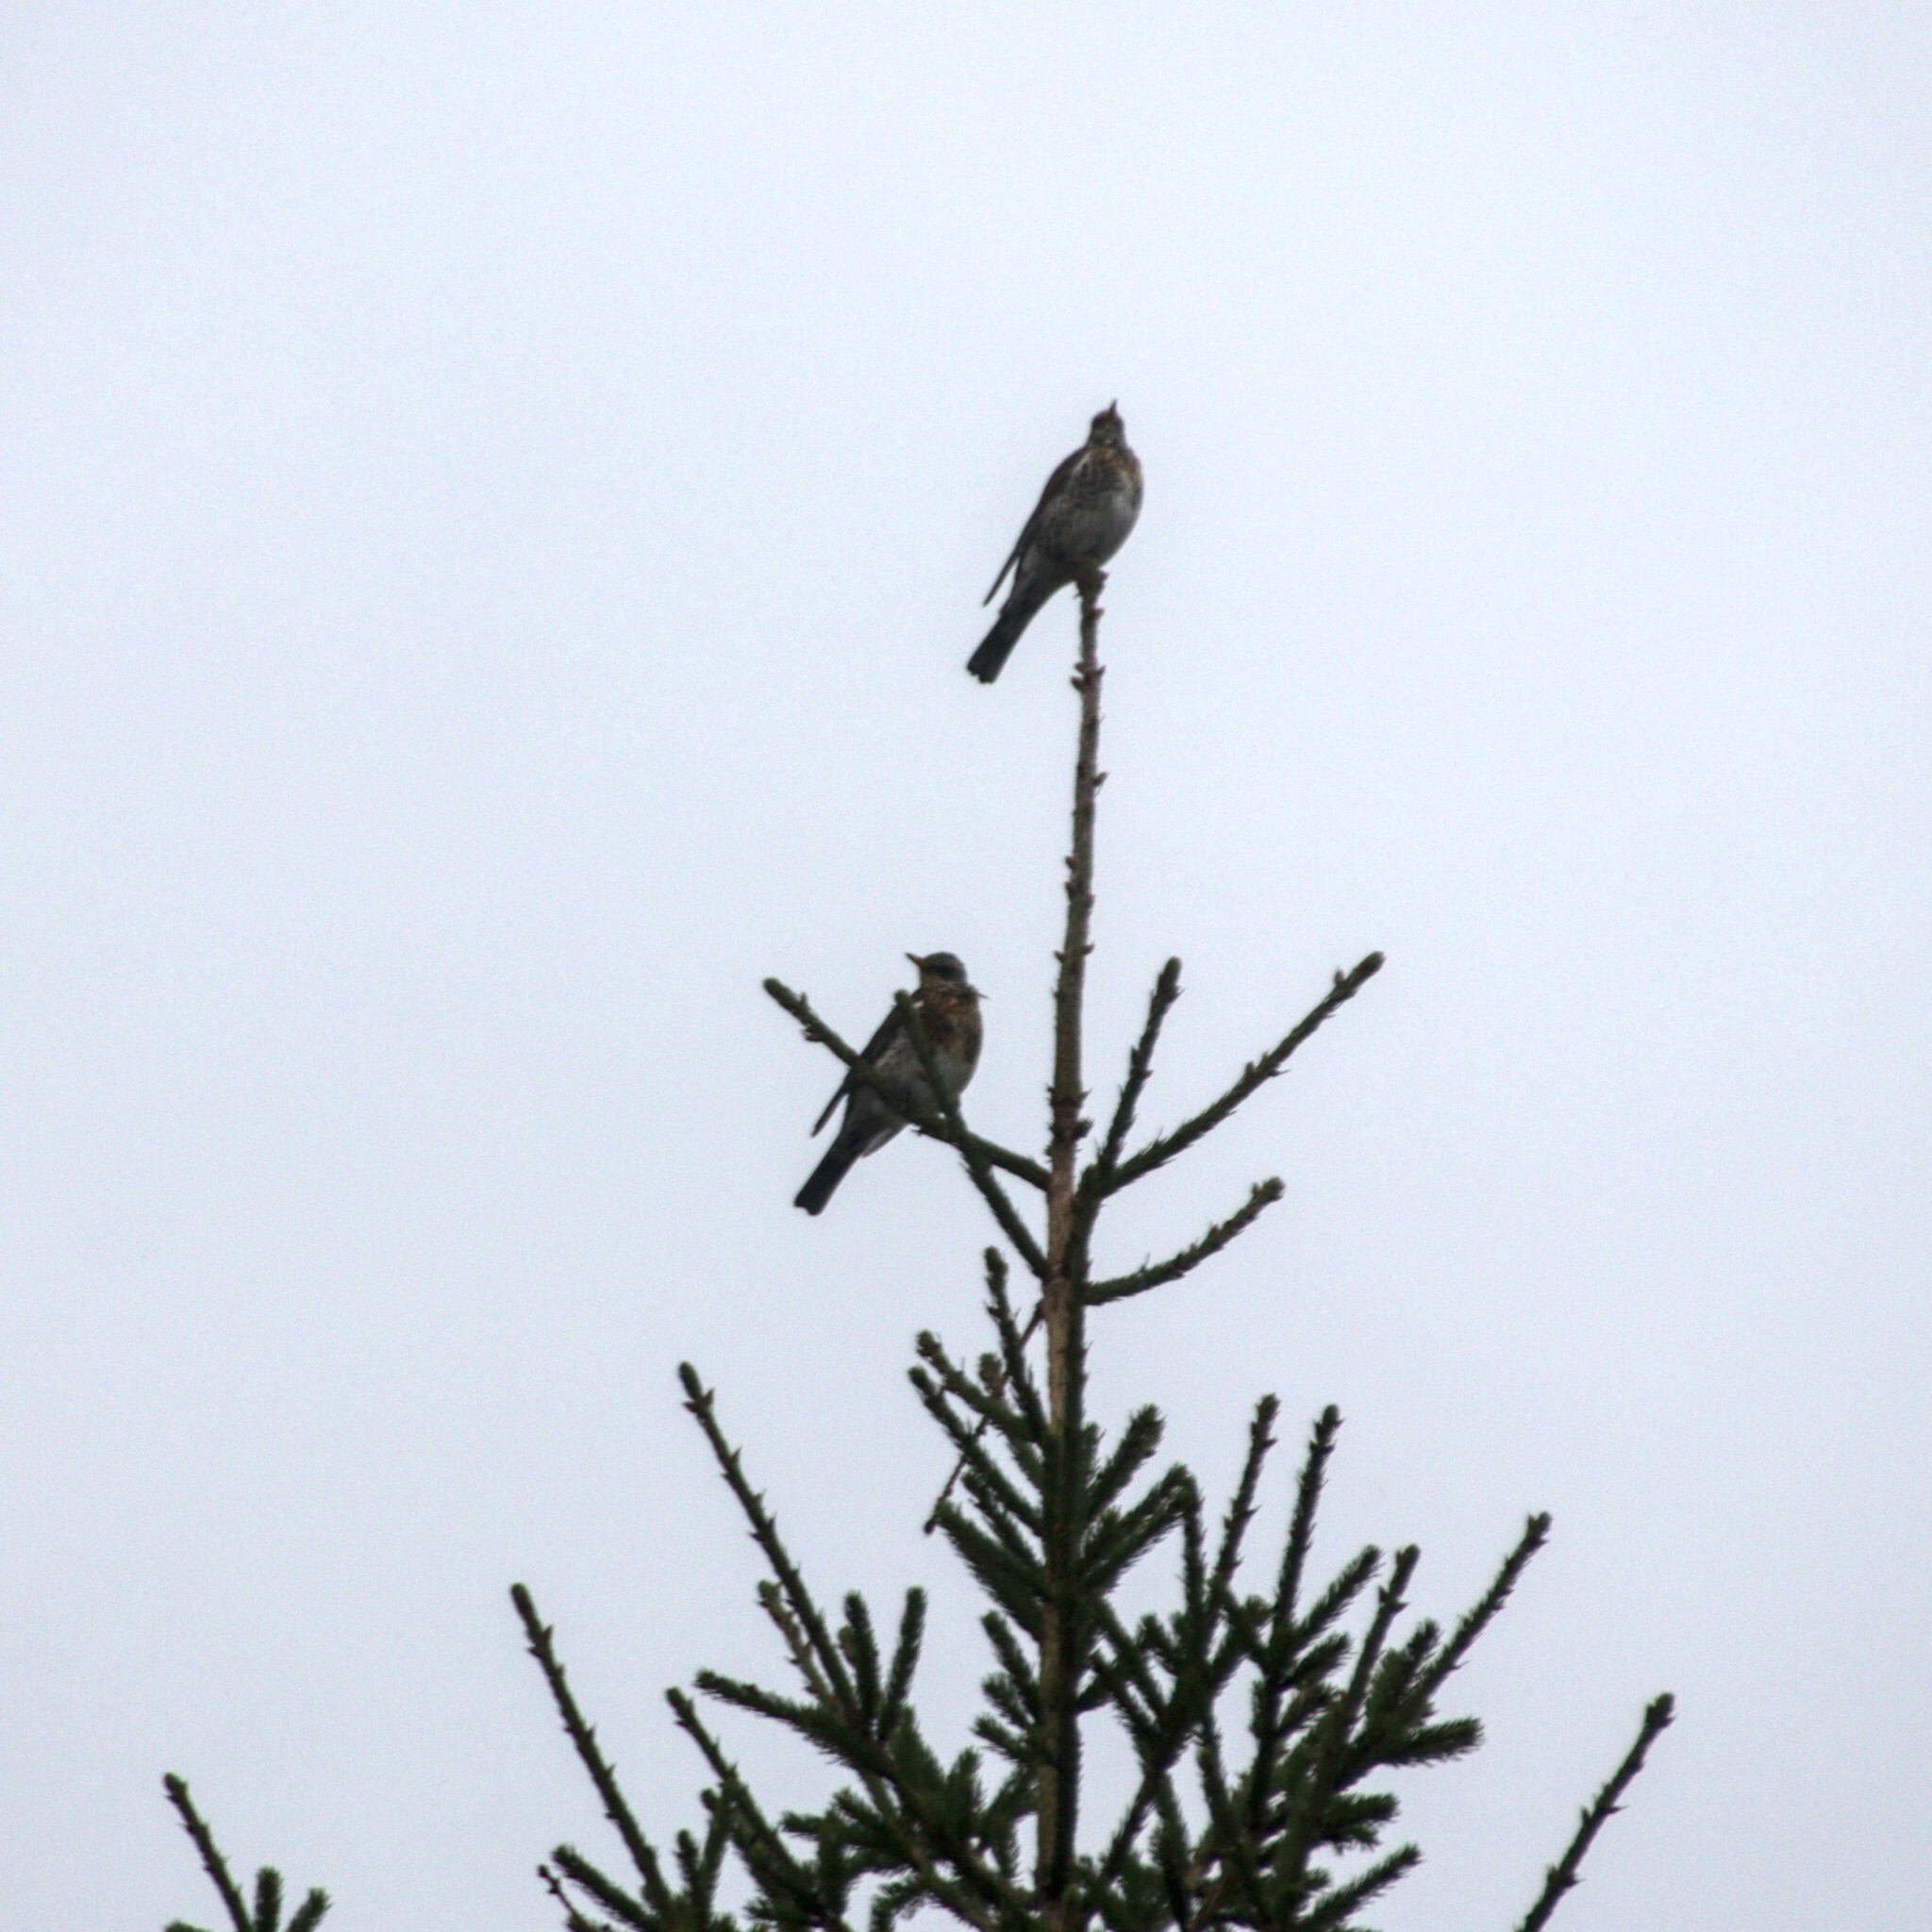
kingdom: Animalia
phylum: Chordata
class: Aves
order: Passeriformes
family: Turdidae
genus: Turdus
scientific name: Turdus pilaris
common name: Fieldfare
